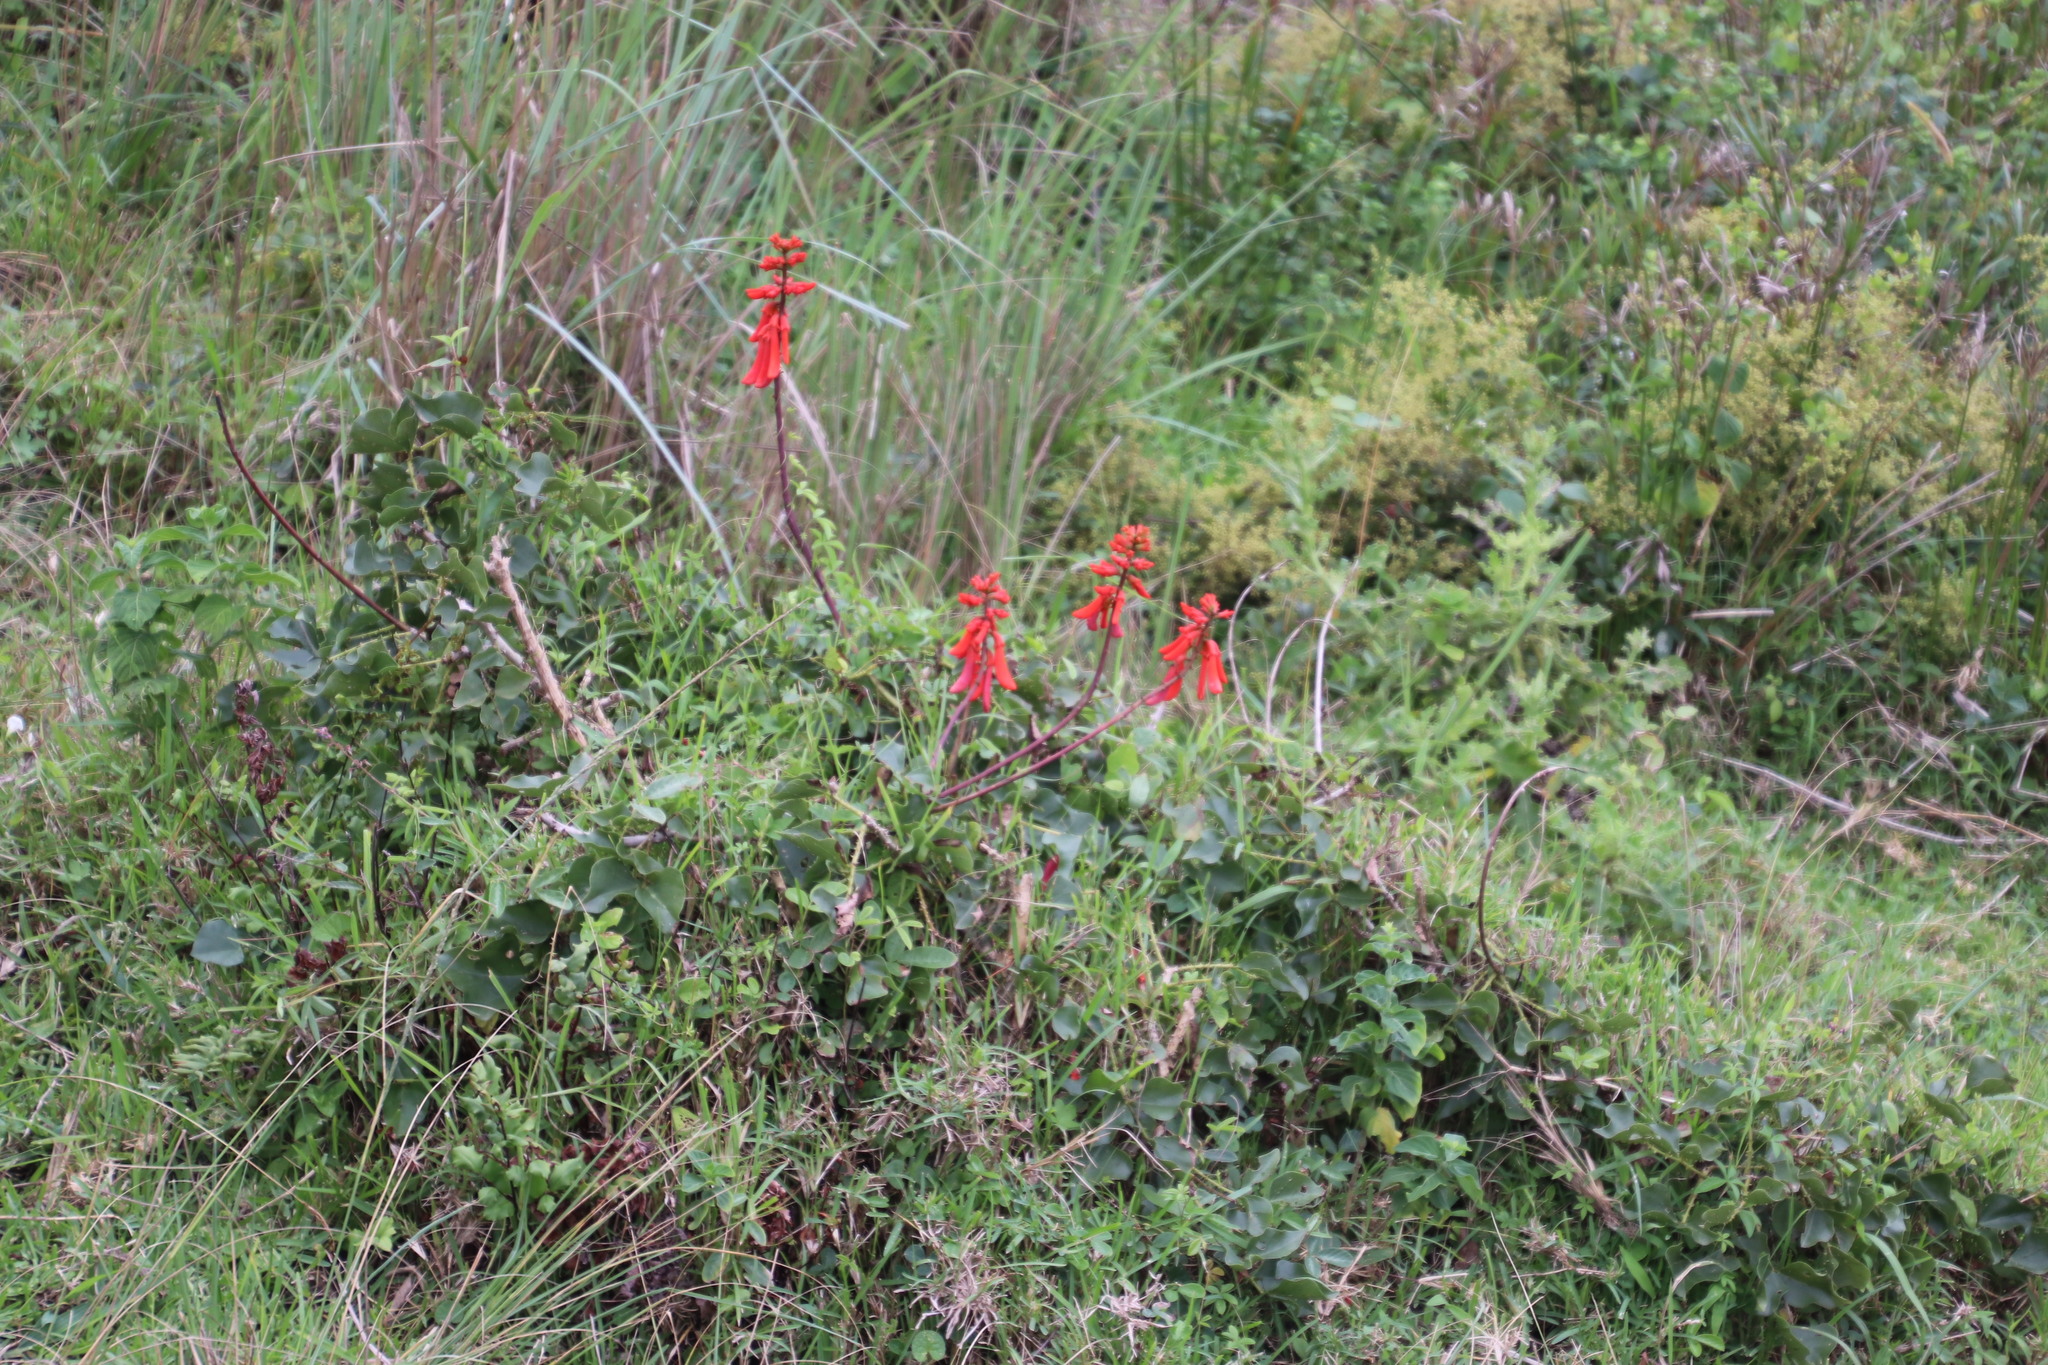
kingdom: Plantae
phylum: Tracheophyta
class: Magnoliopsida
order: Fabales
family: Fabaceae
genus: Erythrina
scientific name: Erythrina humeana
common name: Dwarf coral tree
